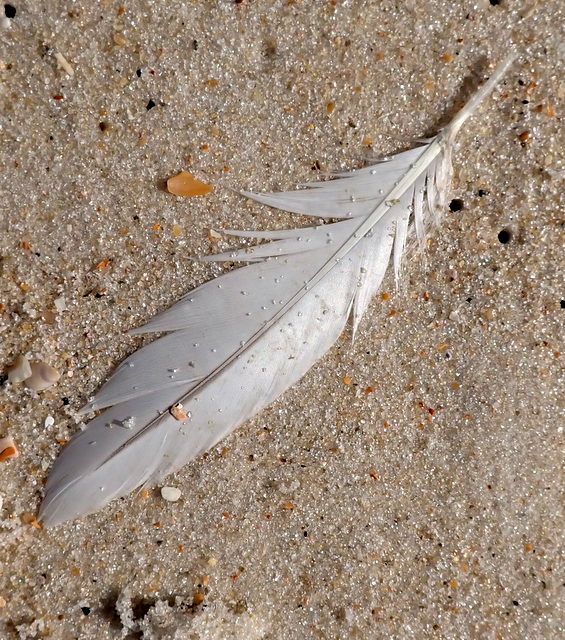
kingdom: Animalia
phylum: Chordata
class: Aves
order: Suliformes
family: Sulidae
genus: Morus
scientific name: Morus bassanus
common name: Northern gannet
